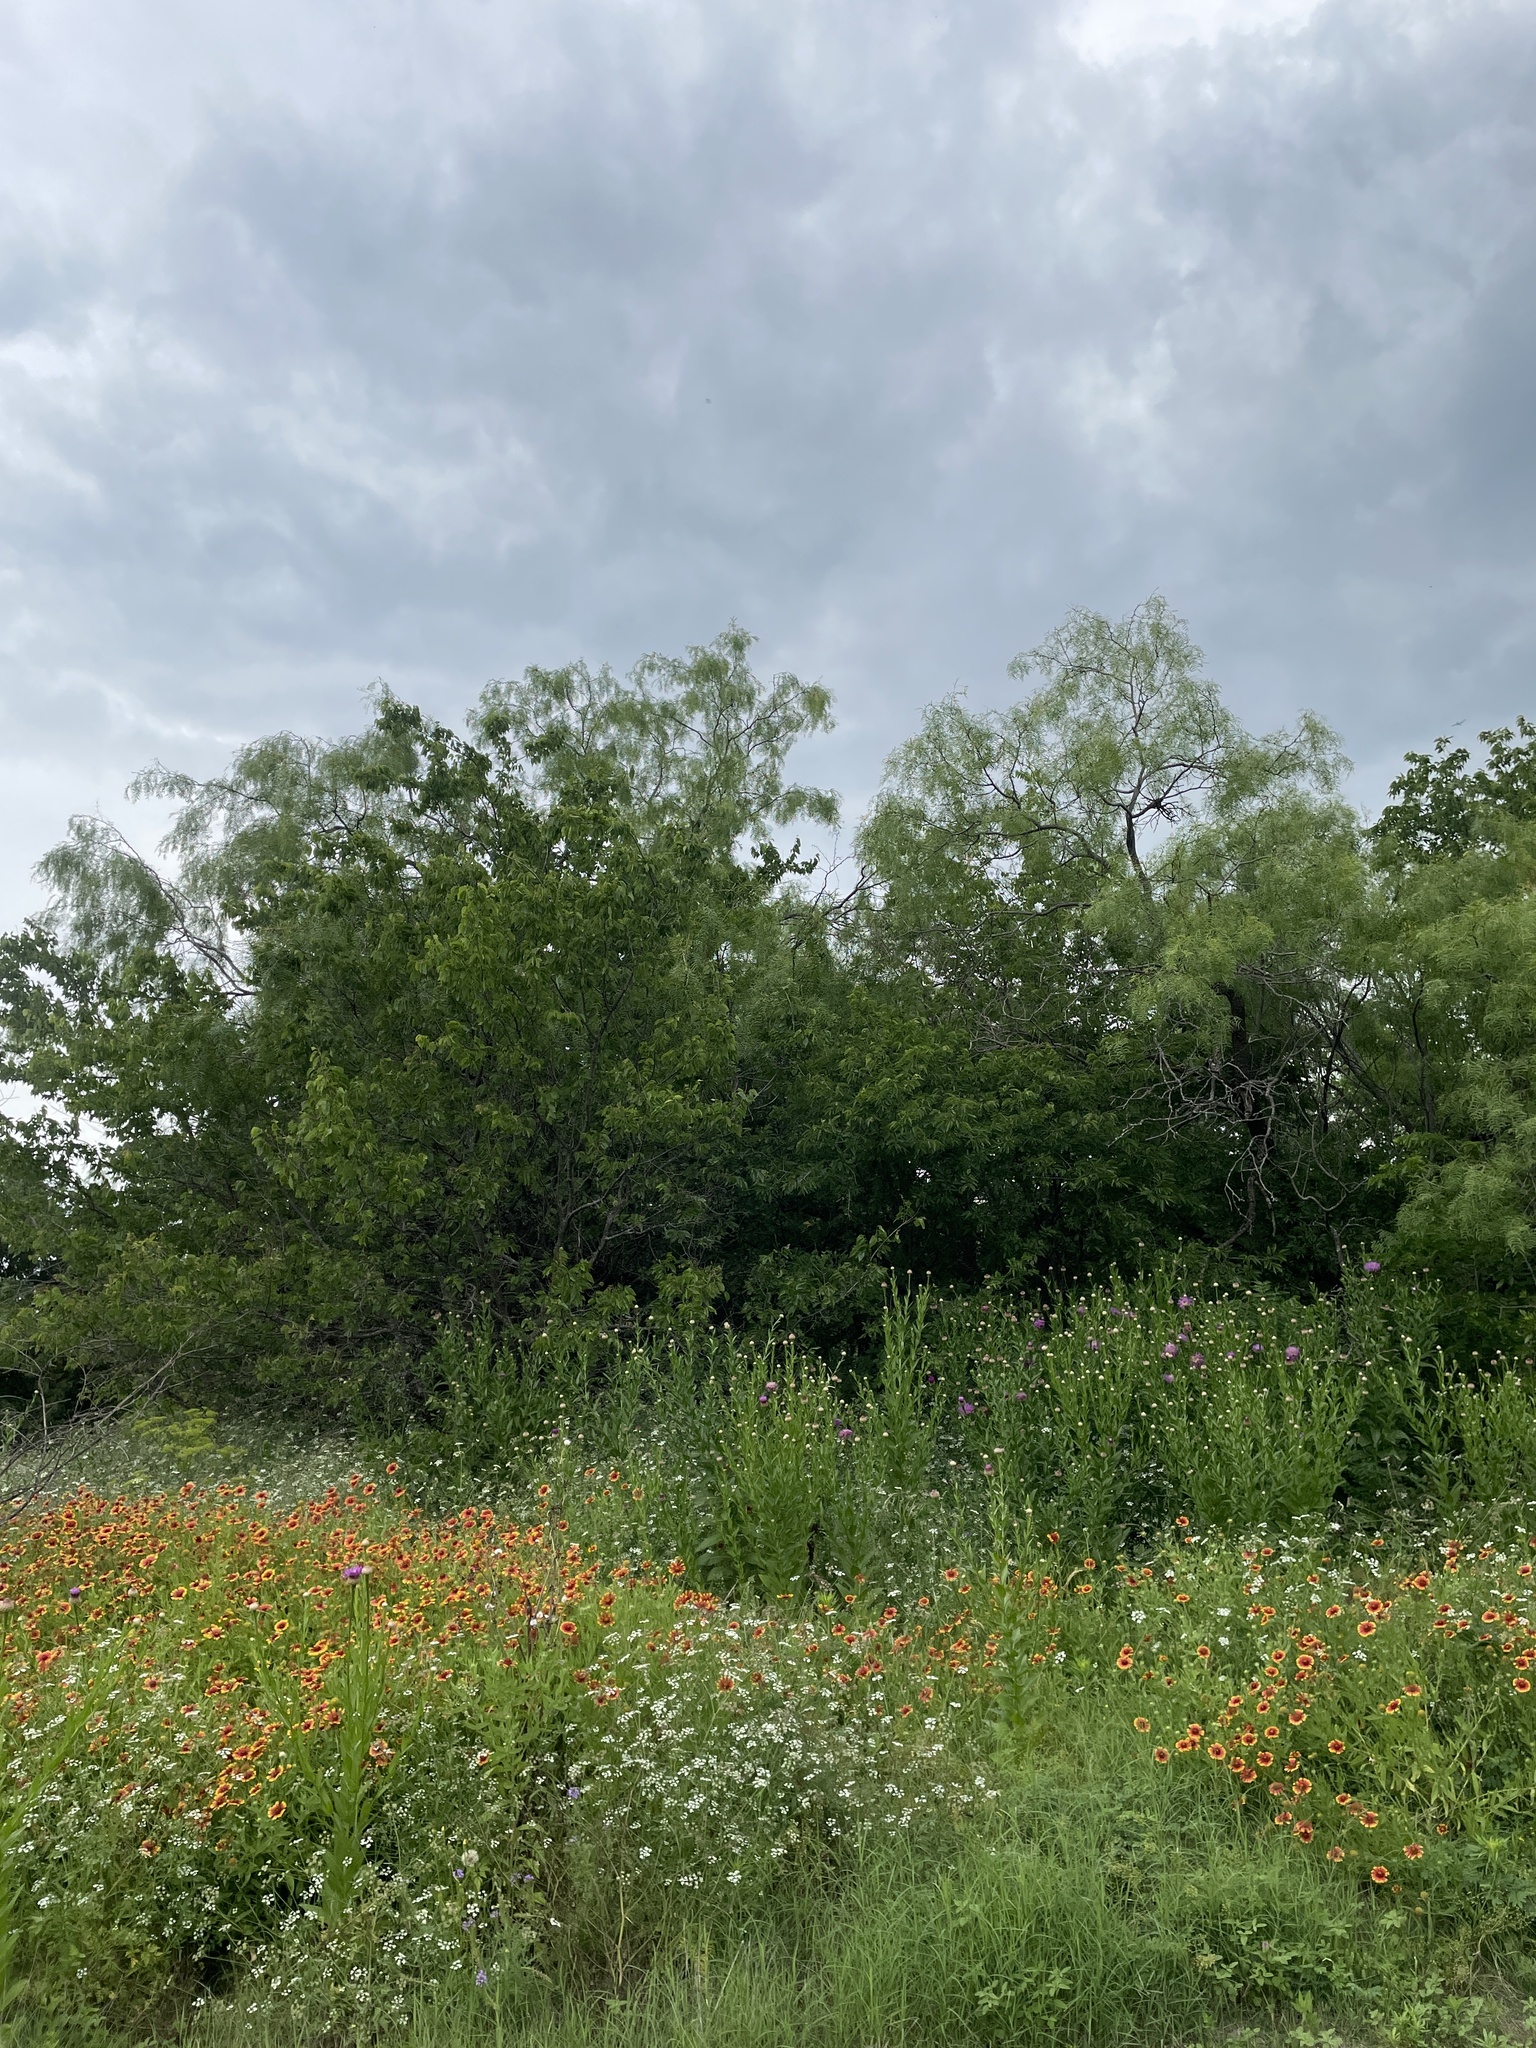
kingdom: Animalia
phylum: Chordata
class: Aves
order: Passeriformes
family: Cardinalidae
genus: Passerina
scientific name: Passerina ciris
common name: Painted bunting
